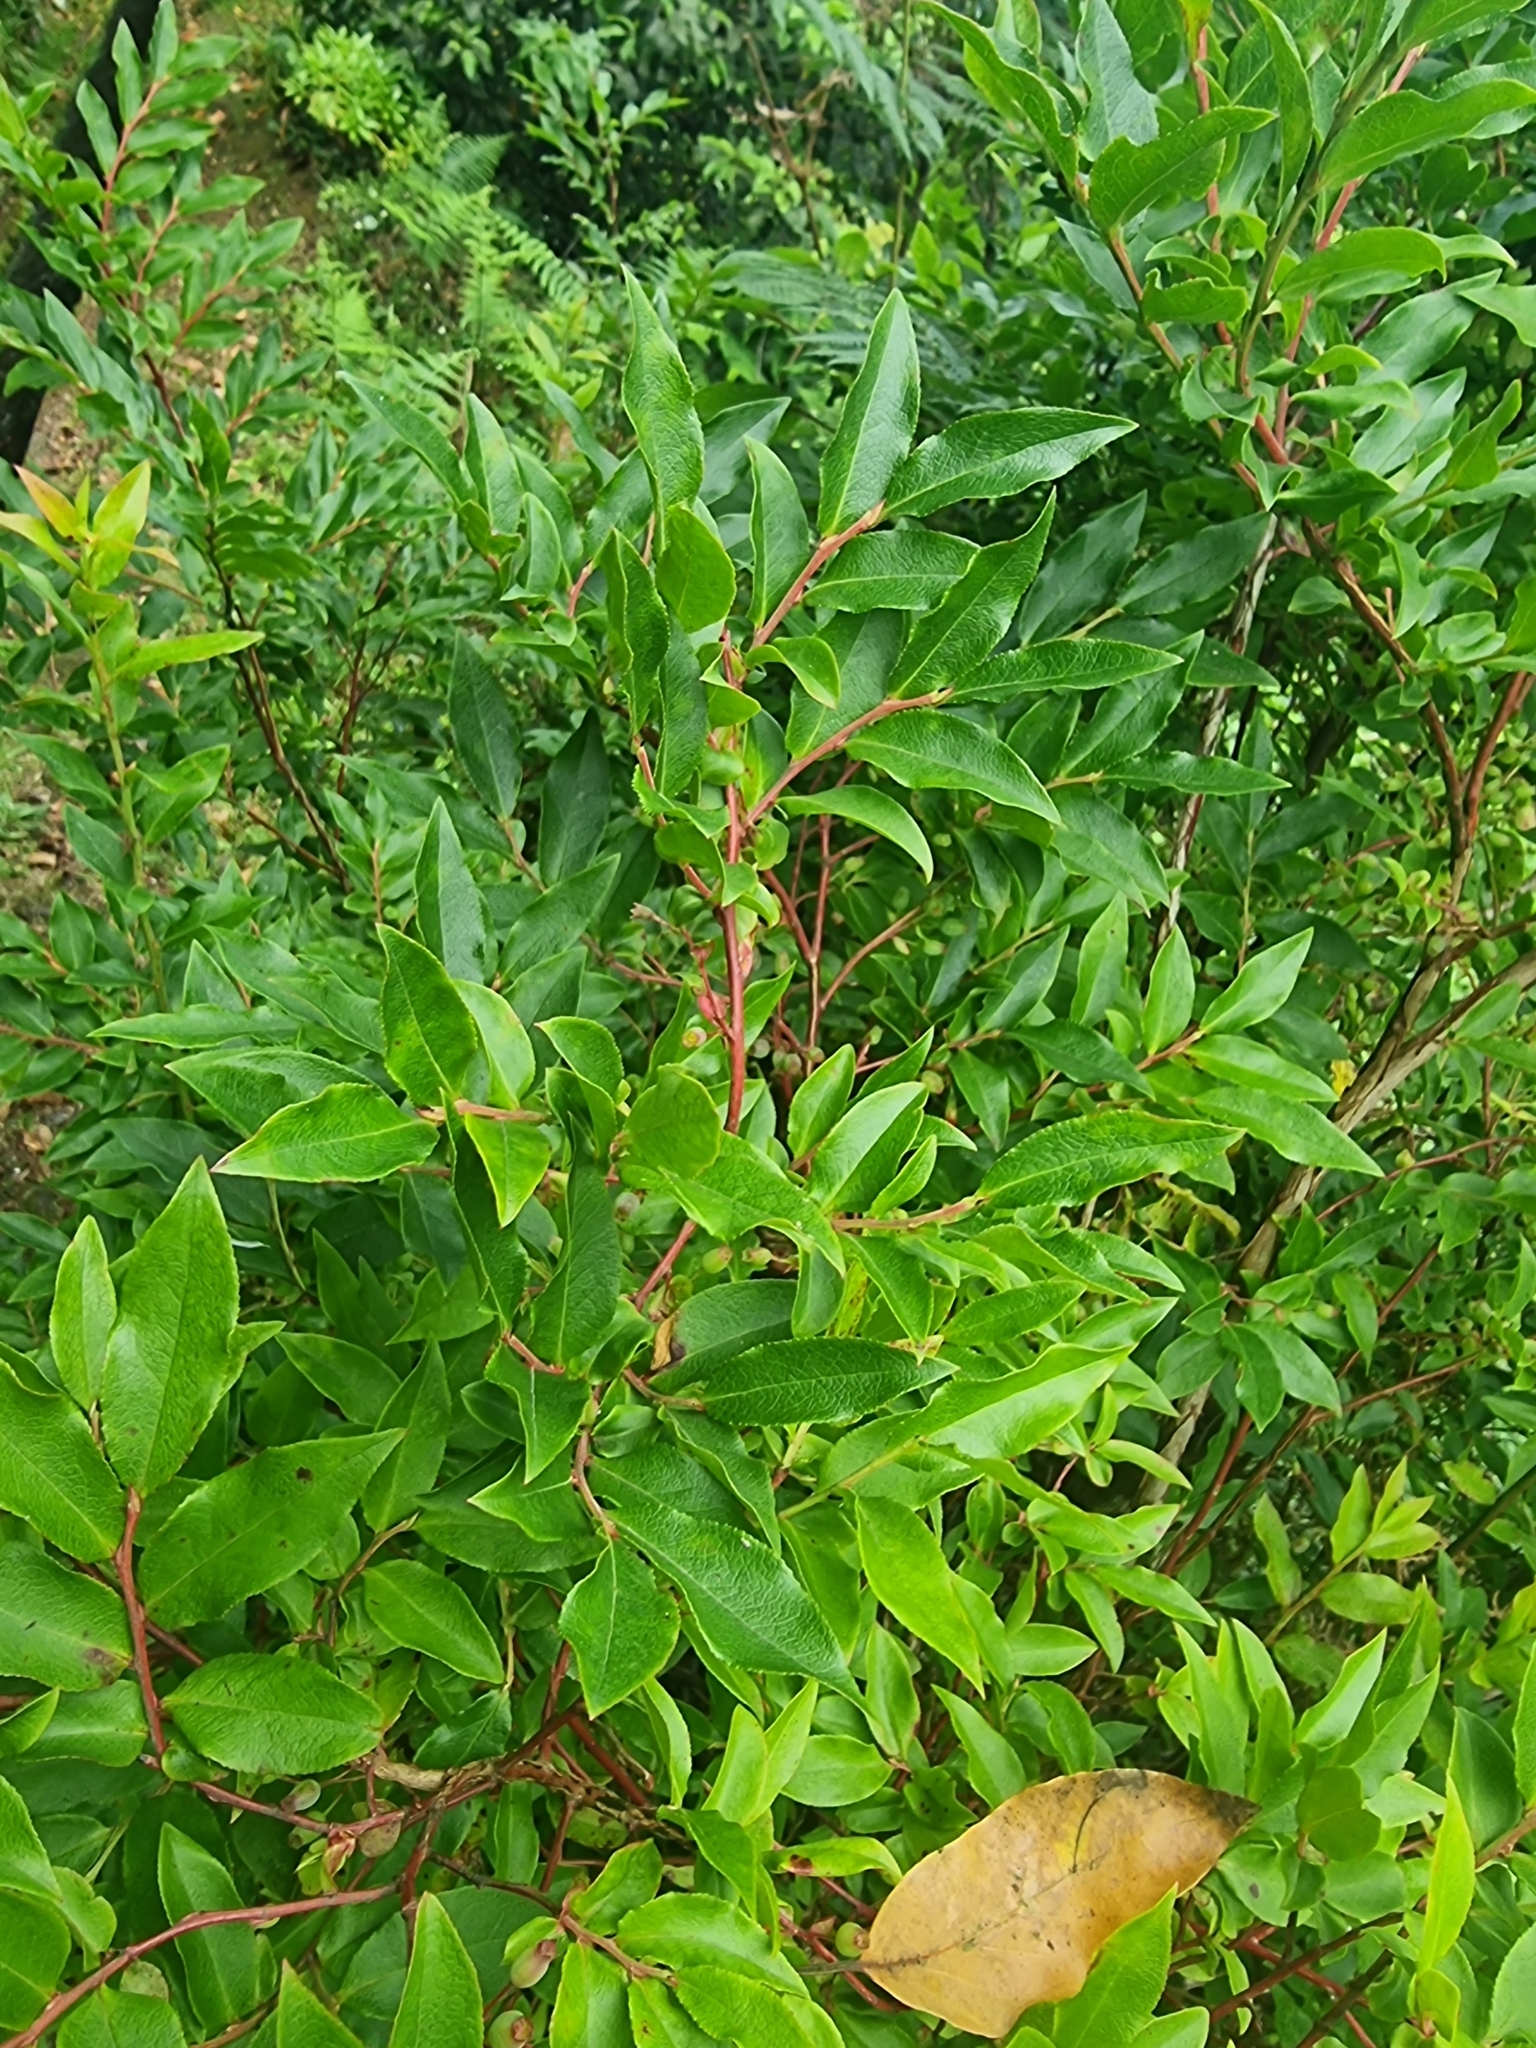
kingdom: Plantae
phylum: Tracheophyta
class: Magnoliopsida
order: Ericales
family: Ericaceae
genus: Vaccinium
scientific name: Vaccinium padifolium
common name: Madeiran blueberry
